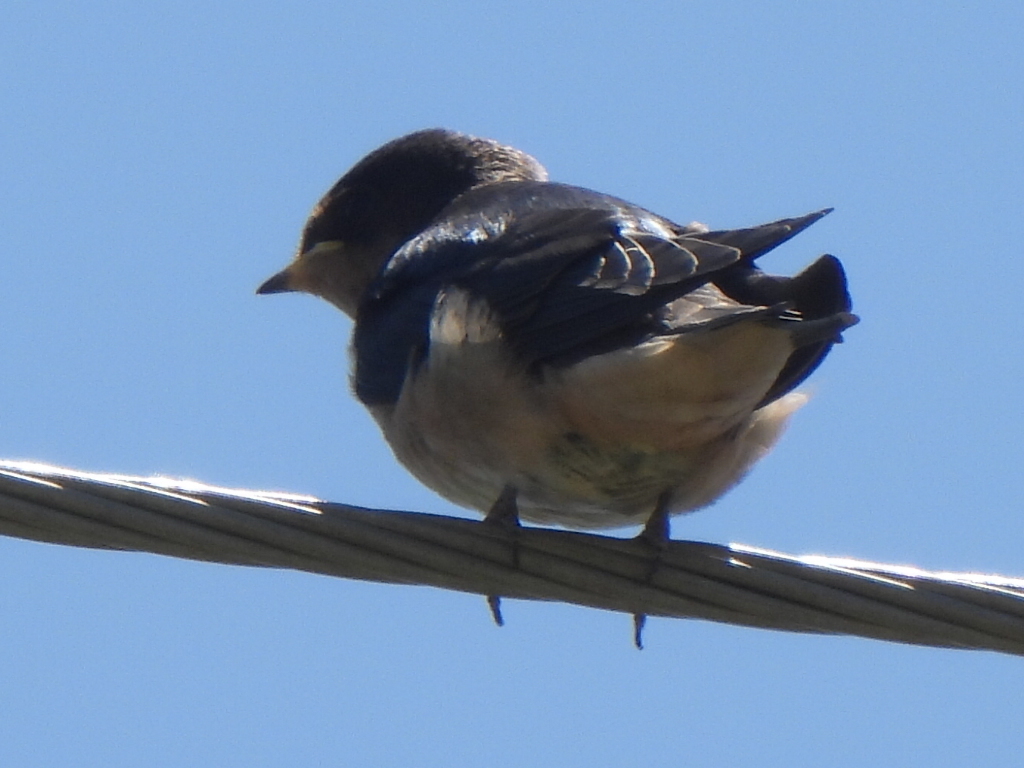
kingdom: Animalia
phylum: Chordata
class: Aves
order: Passeriformes
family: Hirundinidae
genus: Hirundo
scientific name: Hirundo rustica
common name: Barn swallow
